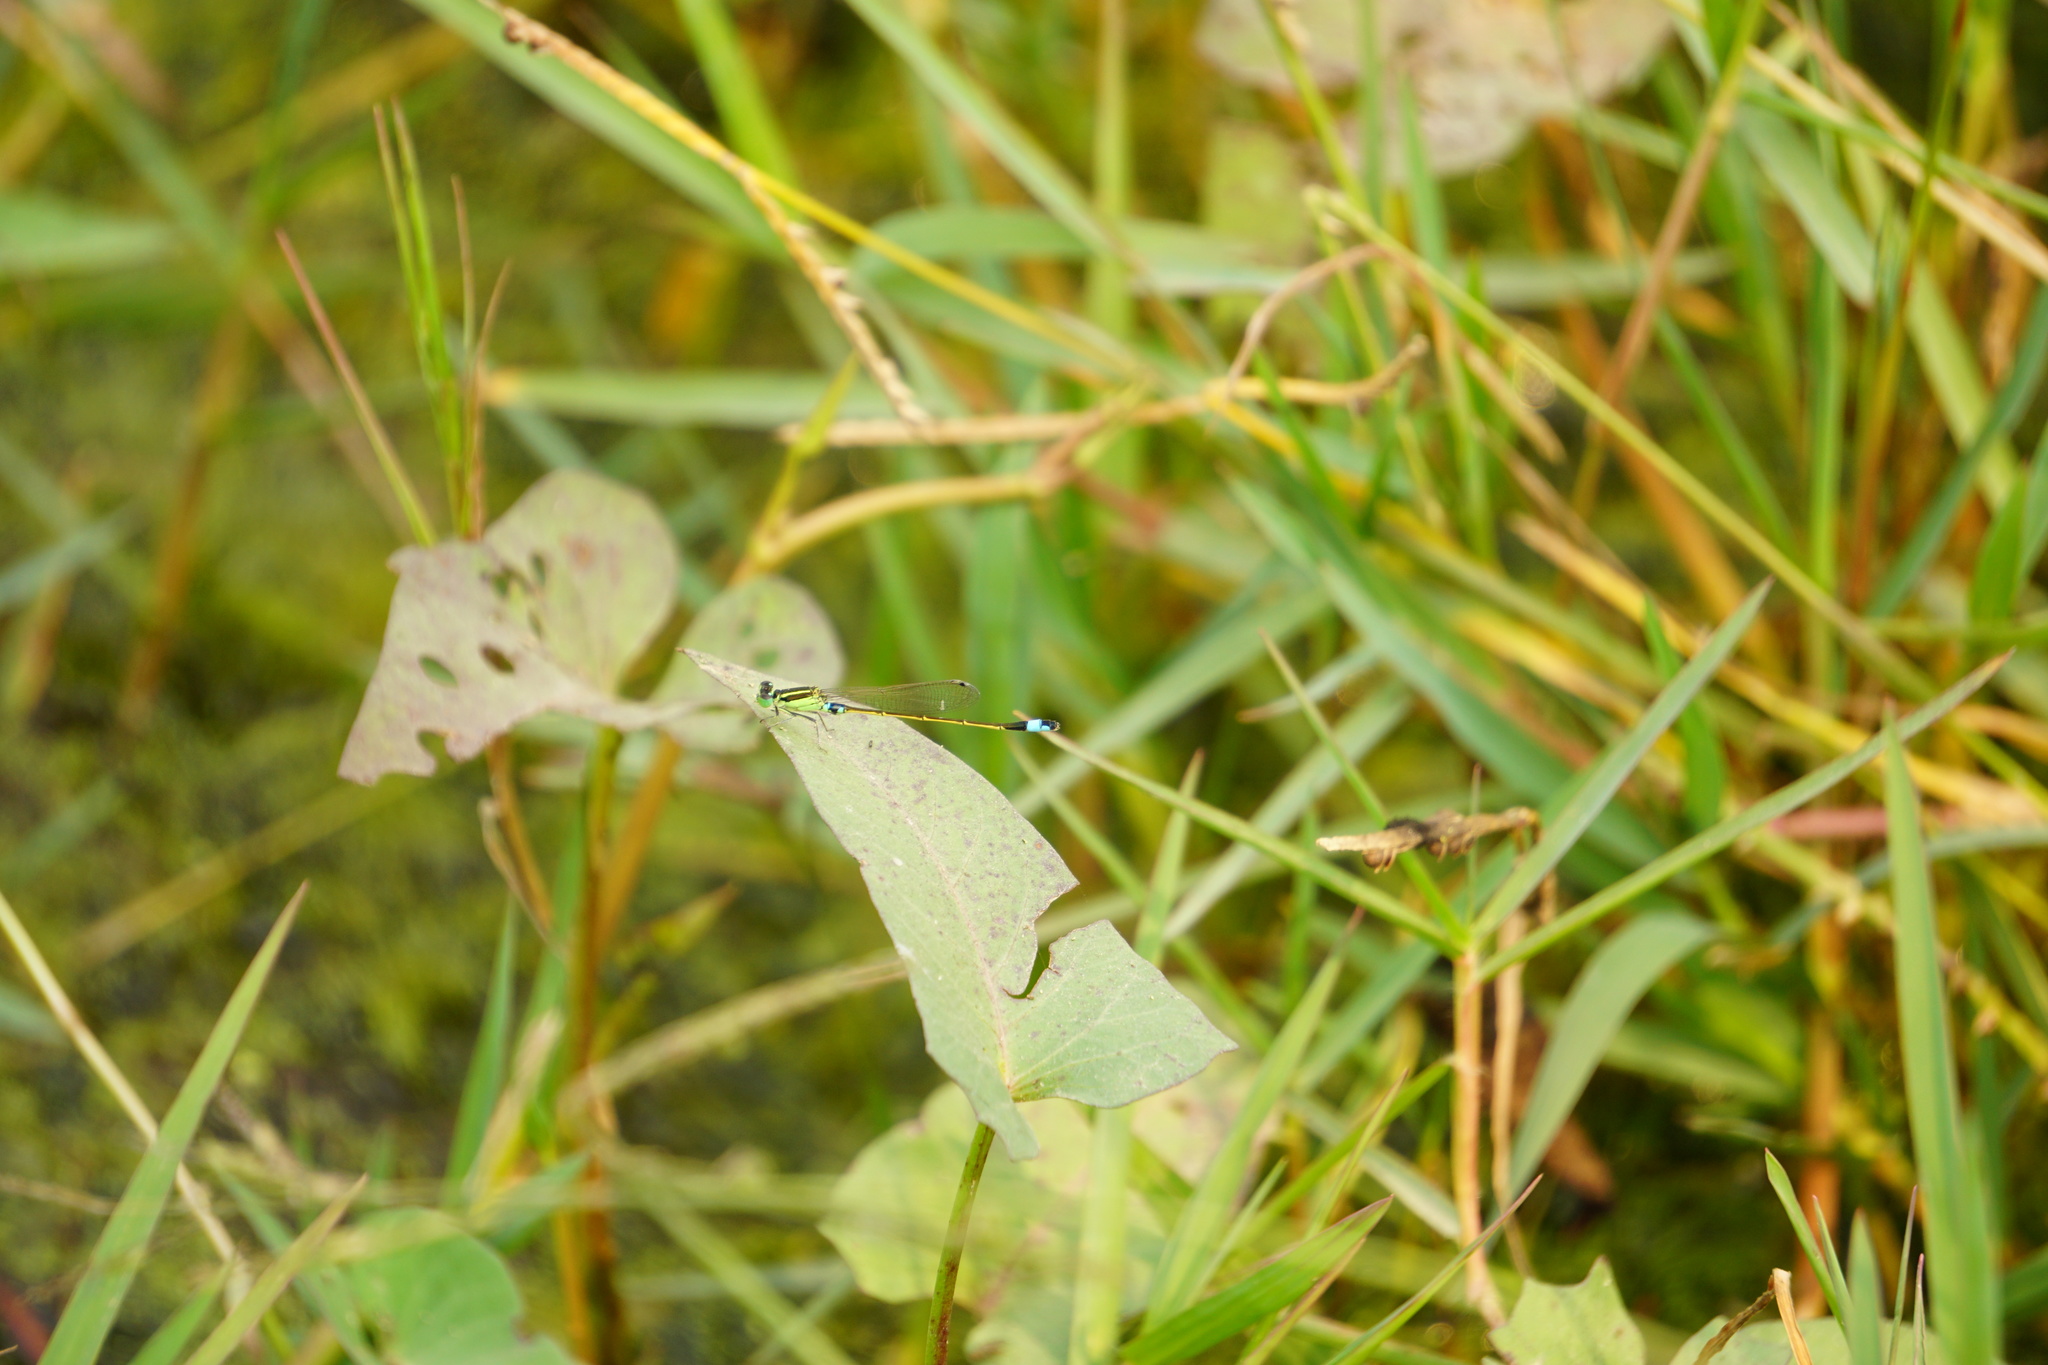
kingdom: Animalia
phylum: Arthropoda
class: Insecta
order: Odonata
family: Coenagrionidae
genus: Ischnura
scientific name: Ischnura senegalensis
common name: Tropical bluetail
